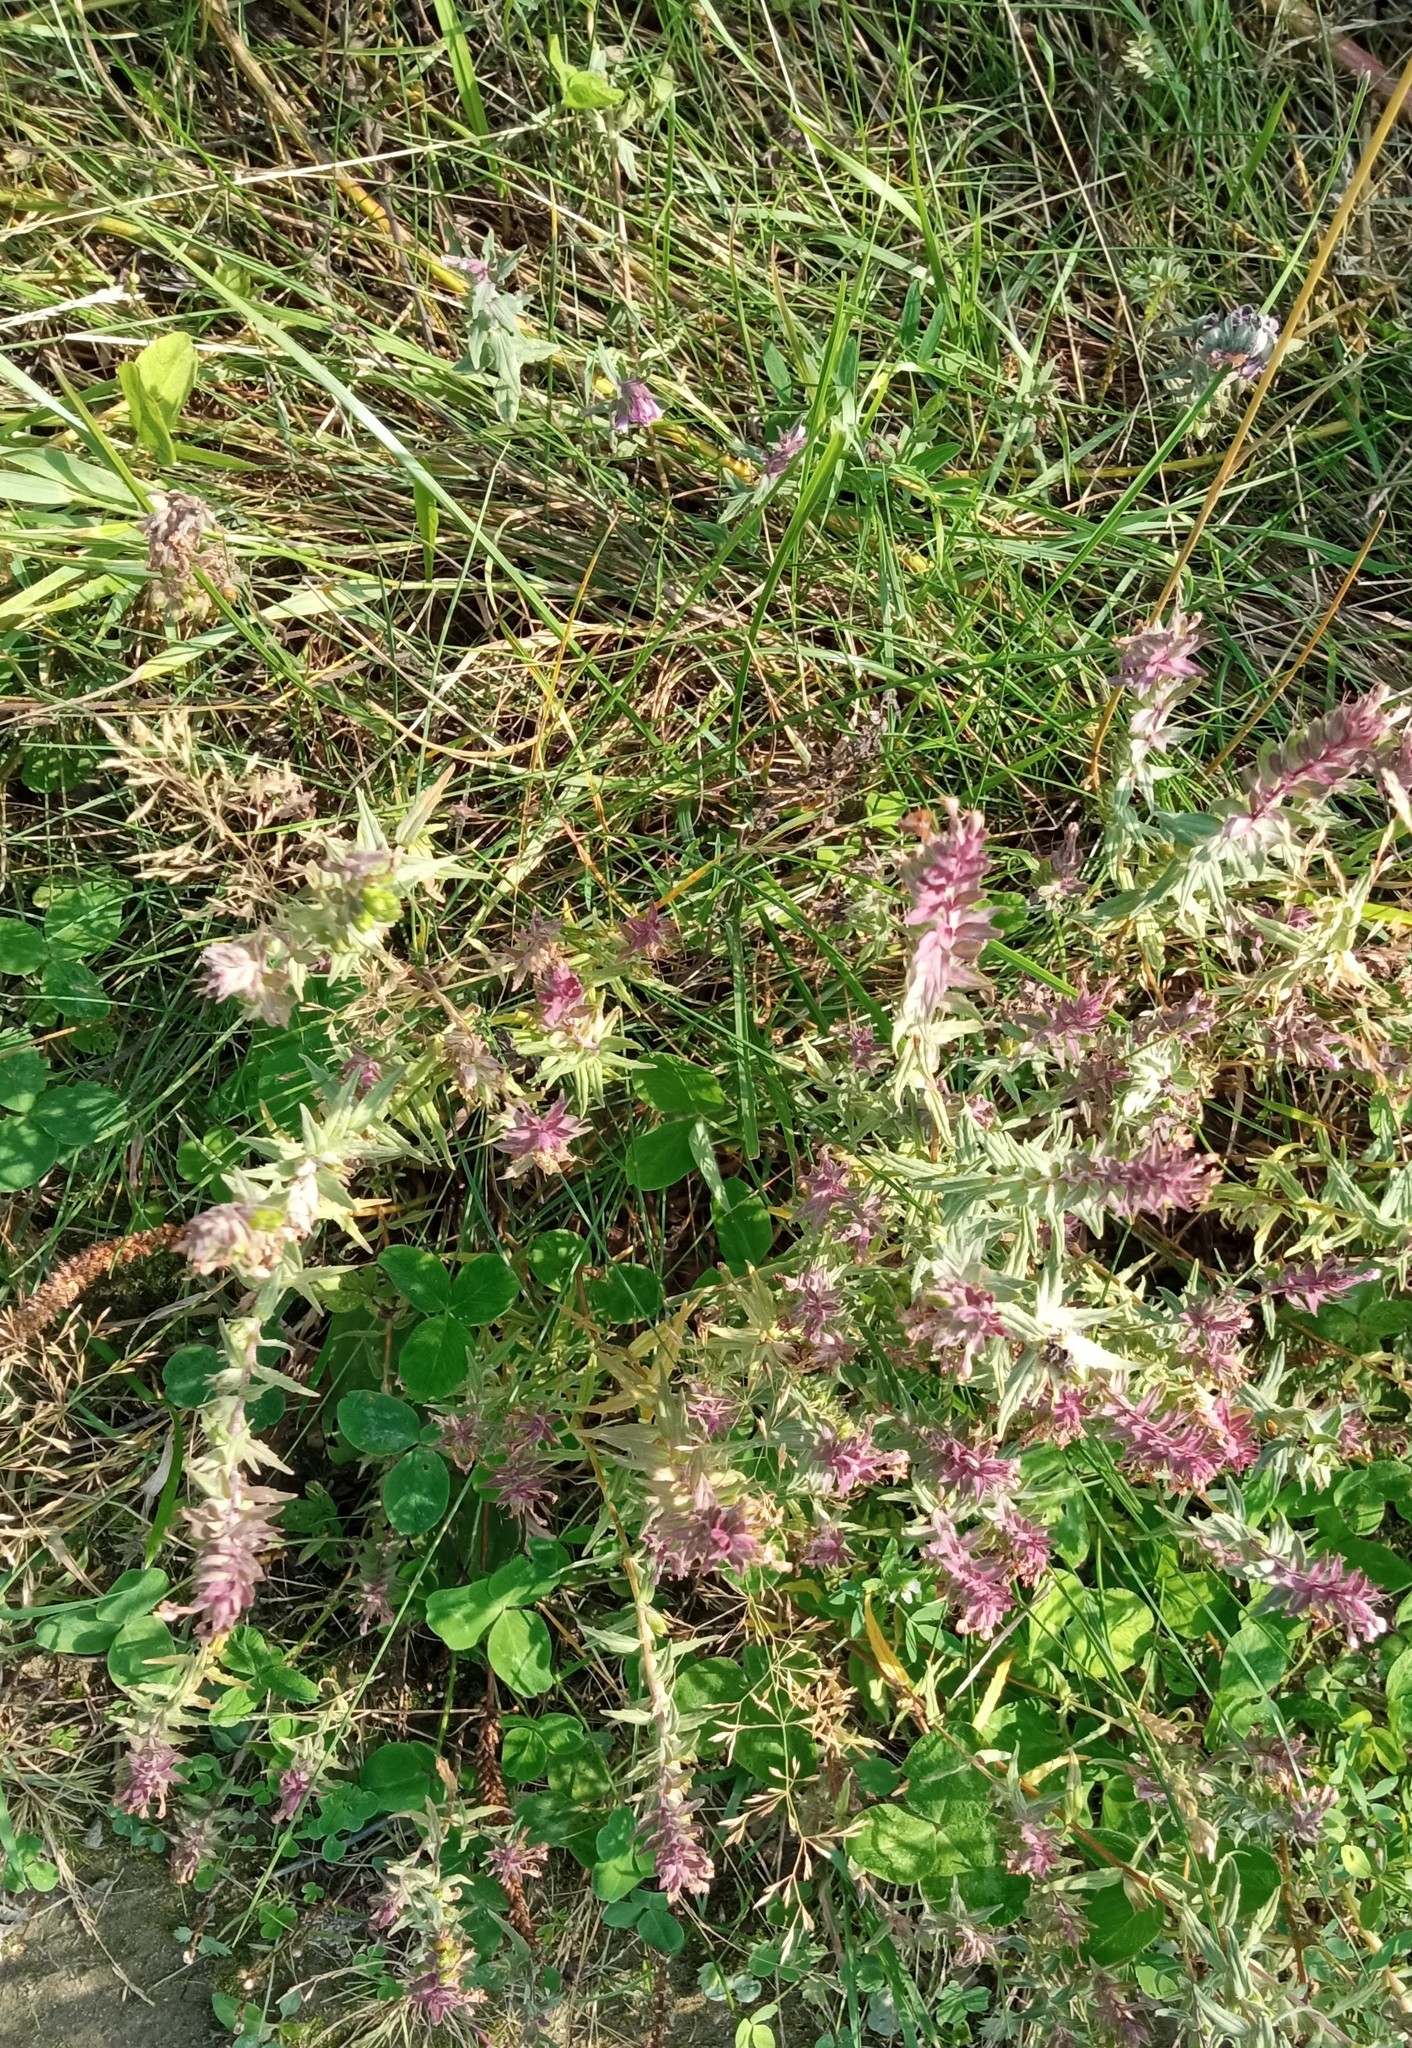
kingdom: Plantae
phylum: Tracheophyta
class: Magnoliopsida
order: Lamiales
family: Orobanchaceae
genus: Odontites
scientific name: Odontites vulgaris
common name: Broomrape
